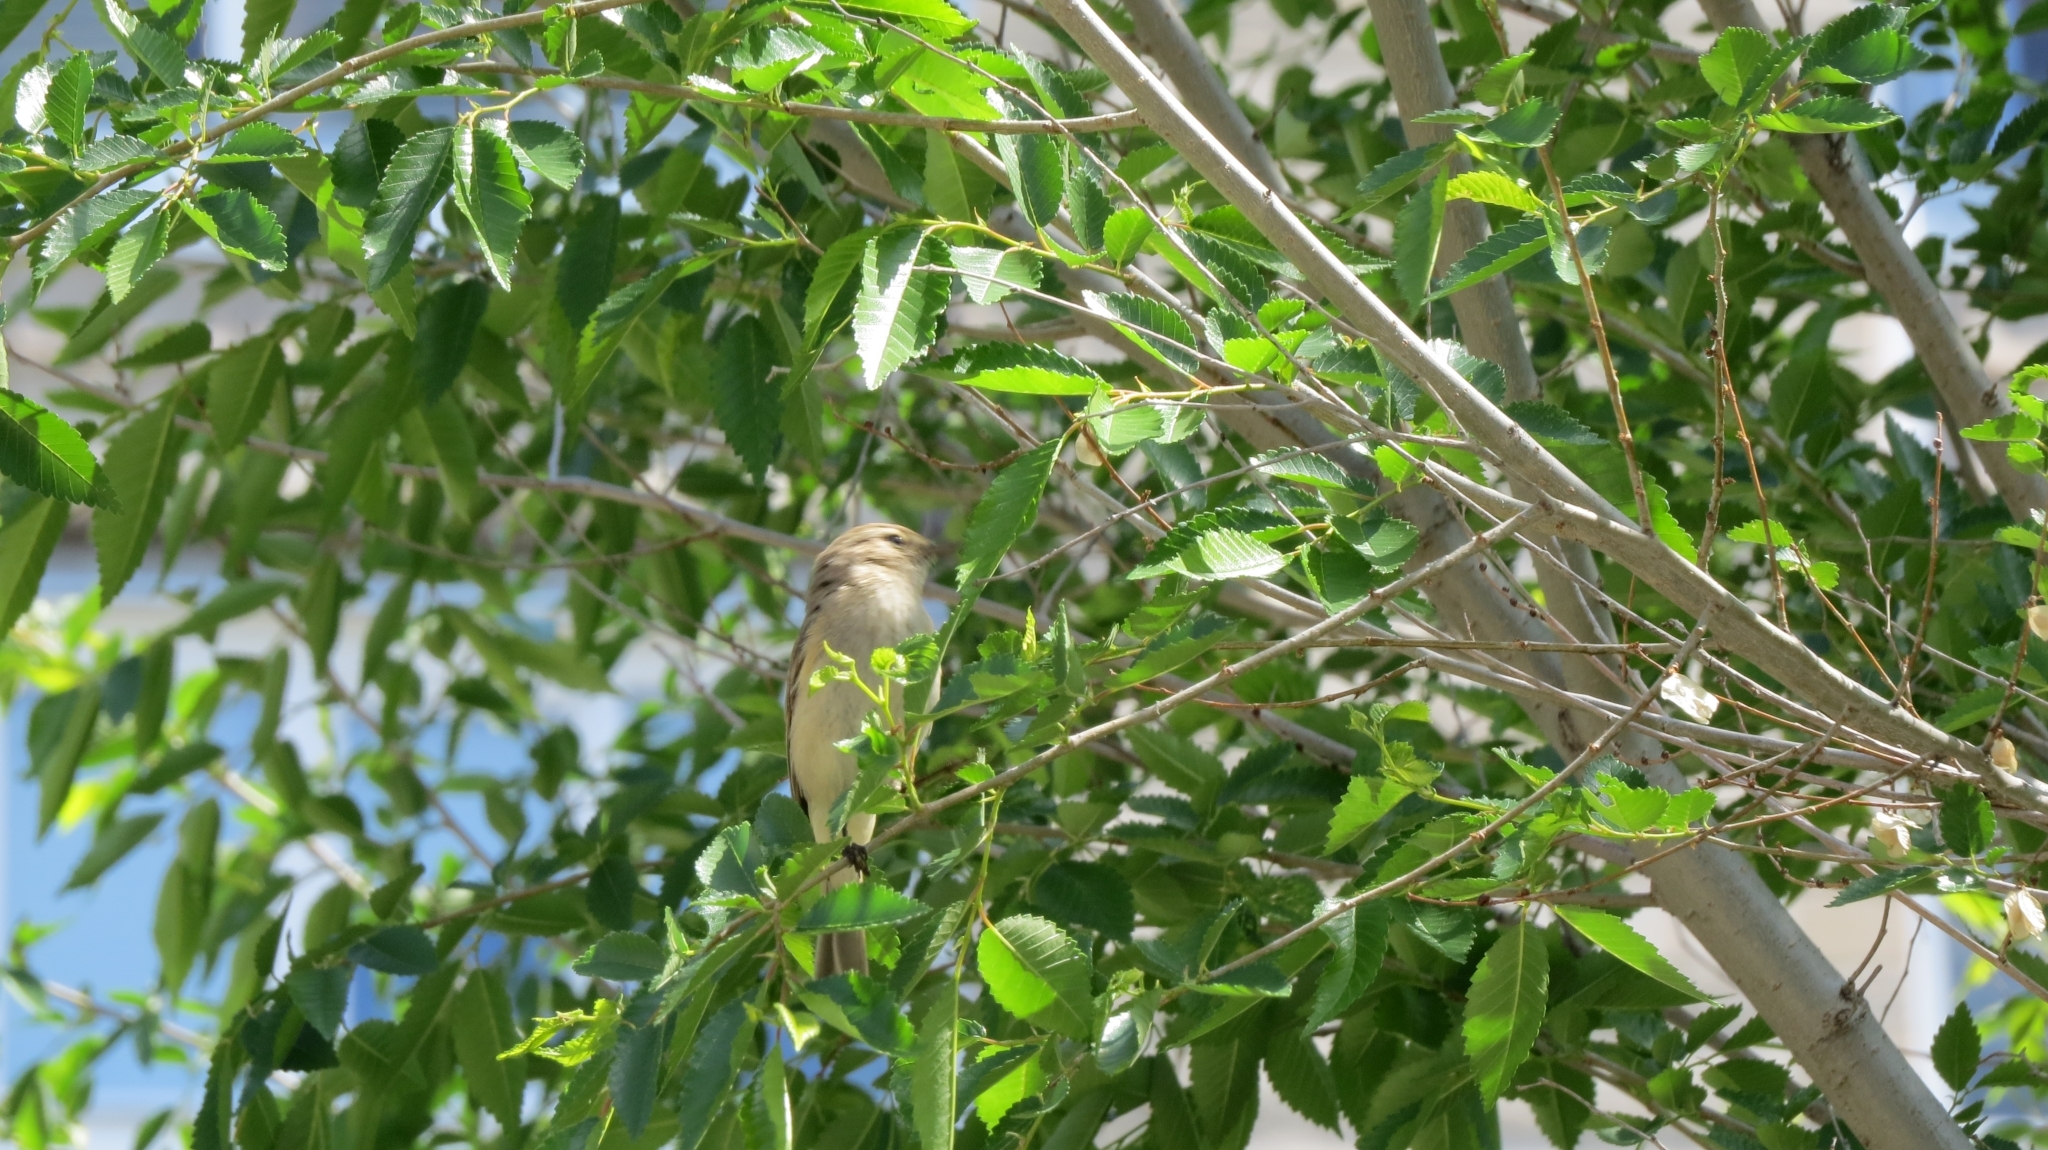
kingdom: Animalia
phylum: Chordata
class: Aves
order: Passeriformes
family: Phylloscopidae
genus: Phylloscopus
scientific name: Phylloscopus collybita
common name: Common chiffchaff
